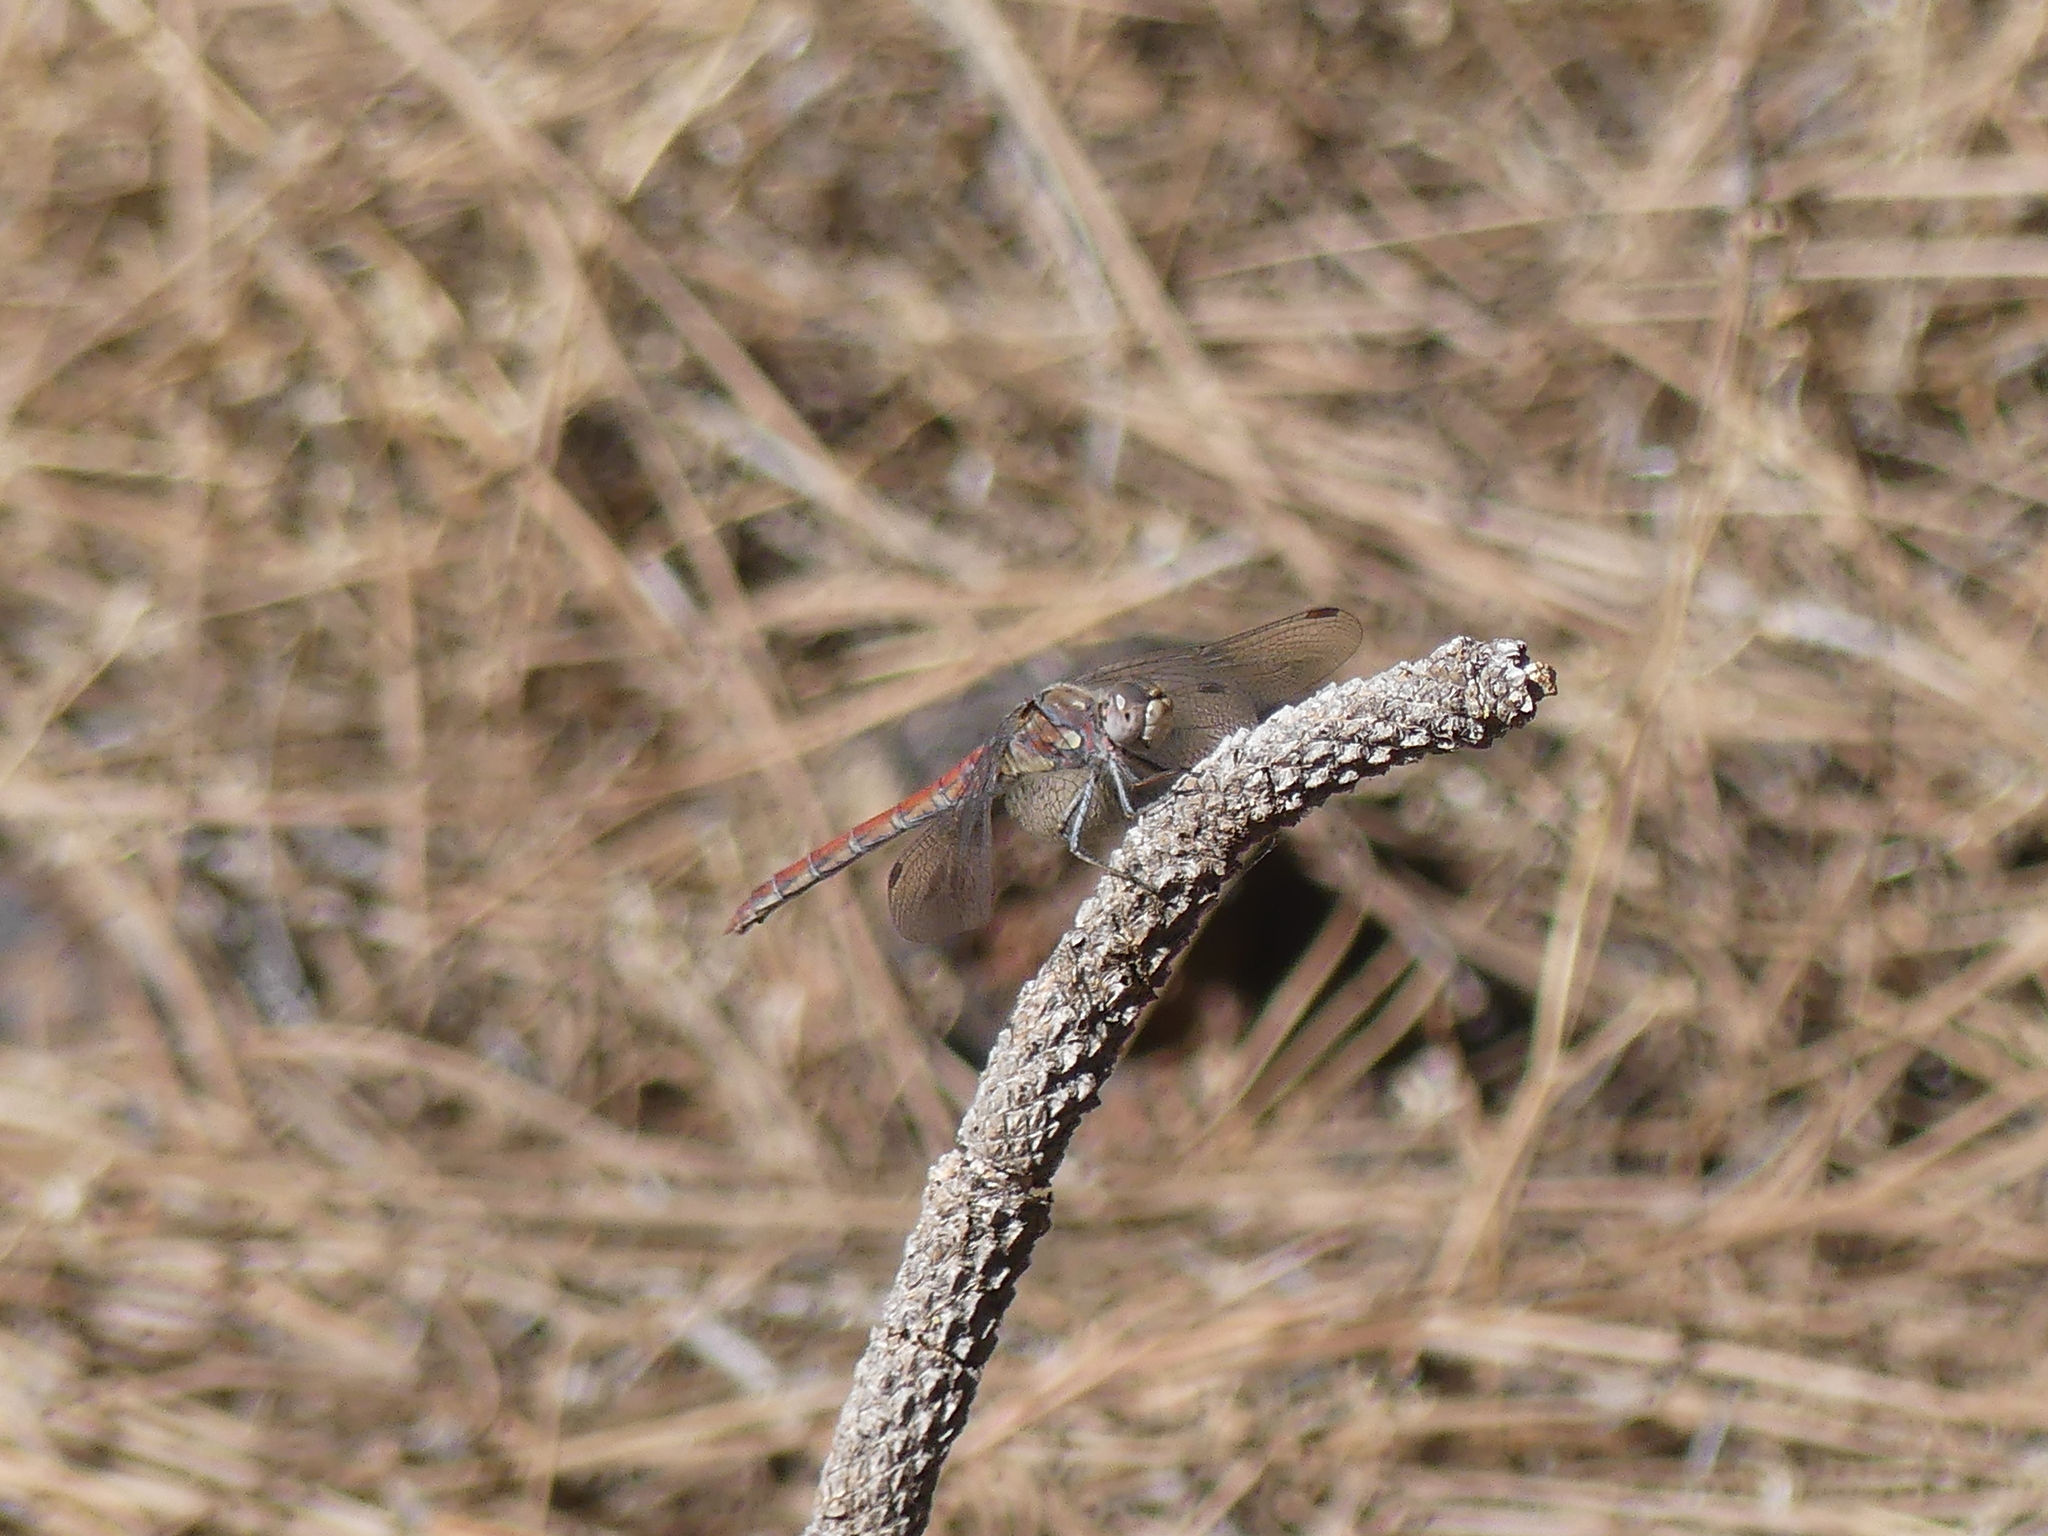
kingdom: Animalia
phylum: Arthropoda
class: Insecta
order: Odonata
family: Libellulidae
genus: Sympetrum
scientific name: Sympetrum nigrifemur
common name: Island darter
